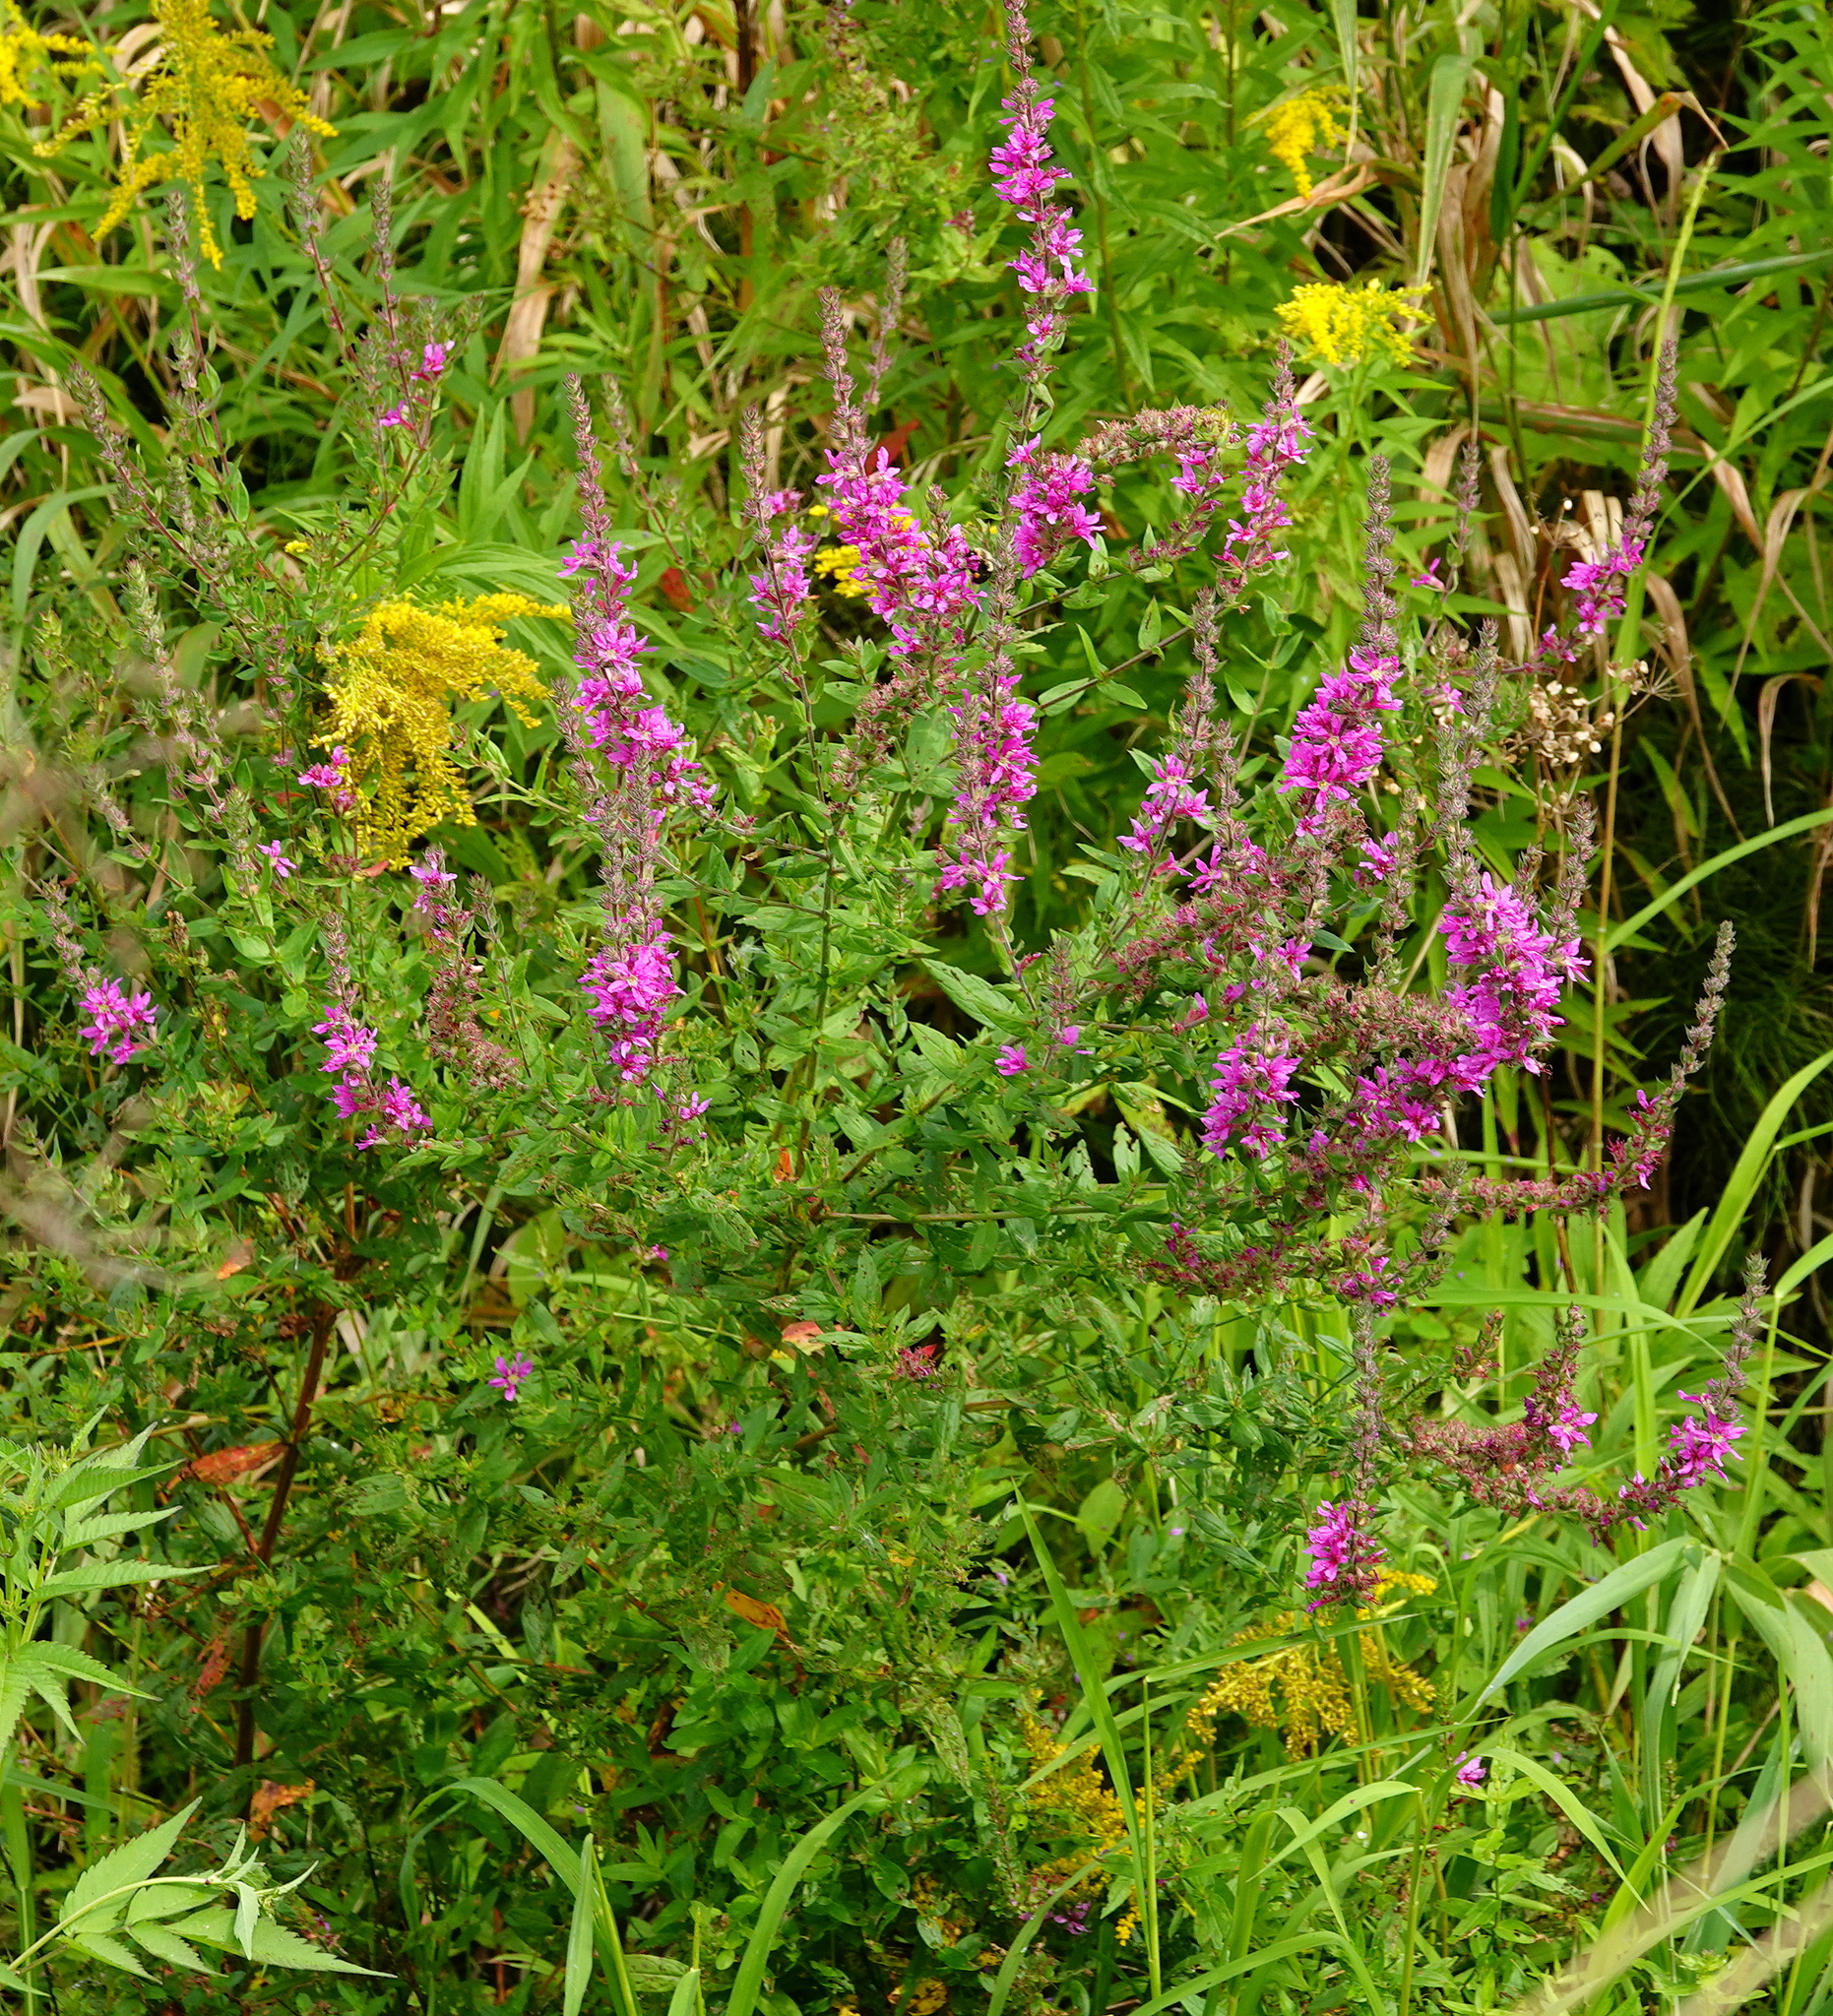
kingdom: Plantae
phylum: Tracheophyta
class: Magnoliopsida
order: Myrtales
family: Lythraceae
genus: Lythrum
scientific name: Lythrum salicaria
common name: Purple loosestrife
